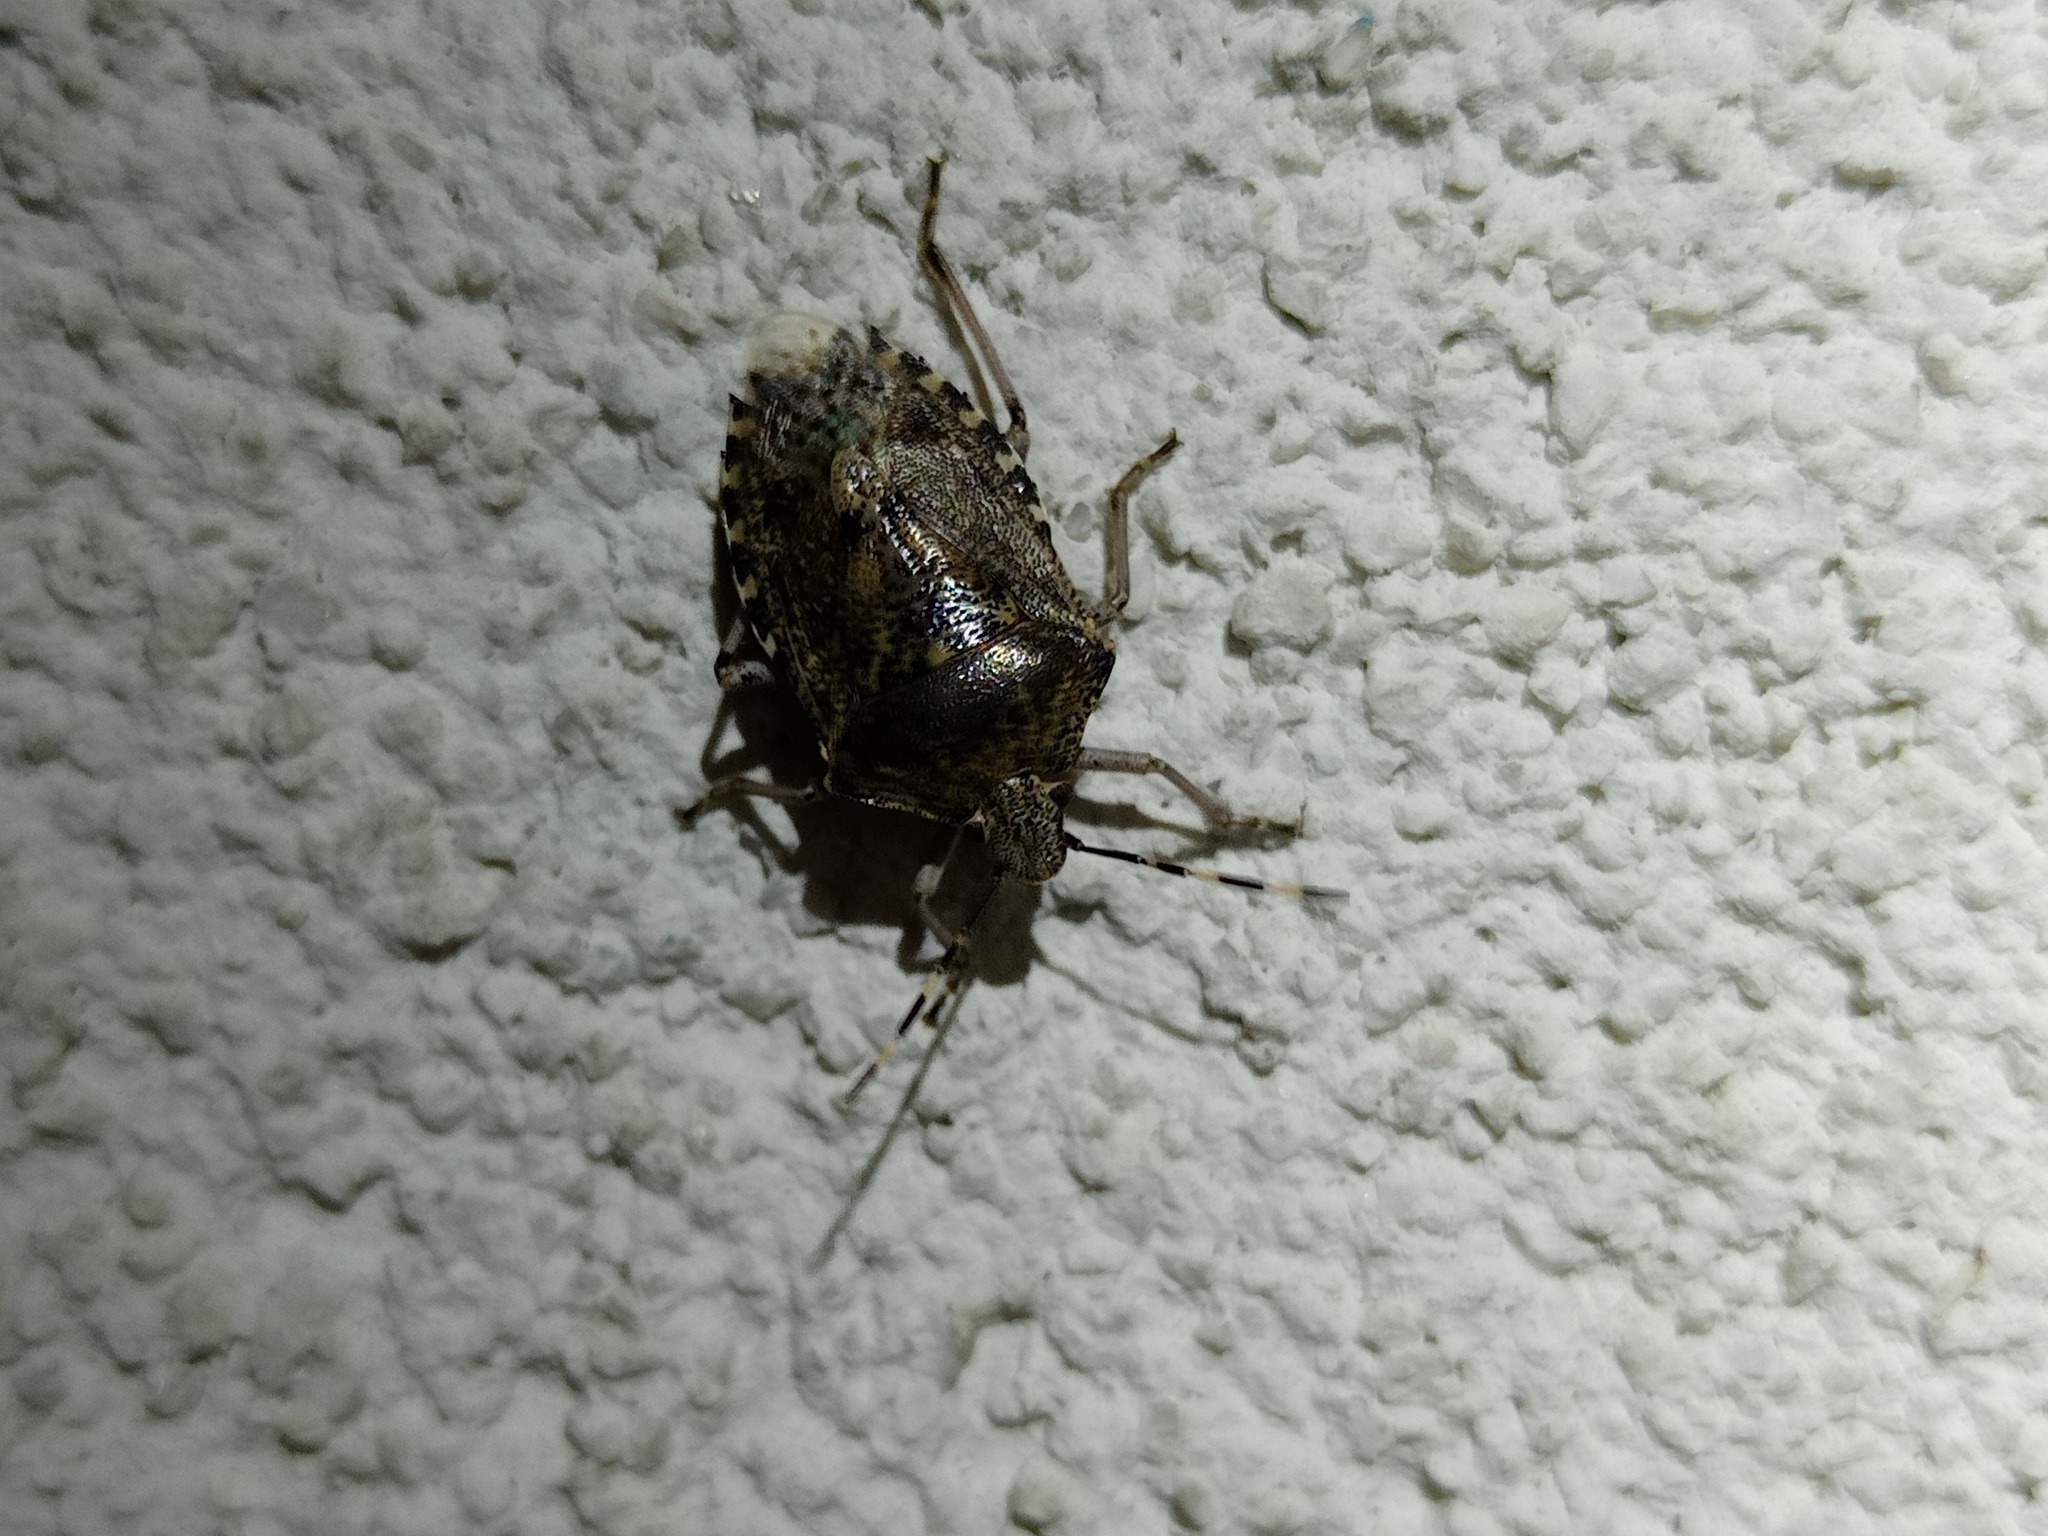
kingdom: Animalia
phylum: Arthropoda
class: Insecta
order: Hemiptera
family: Pentatomidae
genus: Rhaphigaster
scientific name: Rhaphigaster nebulosa
